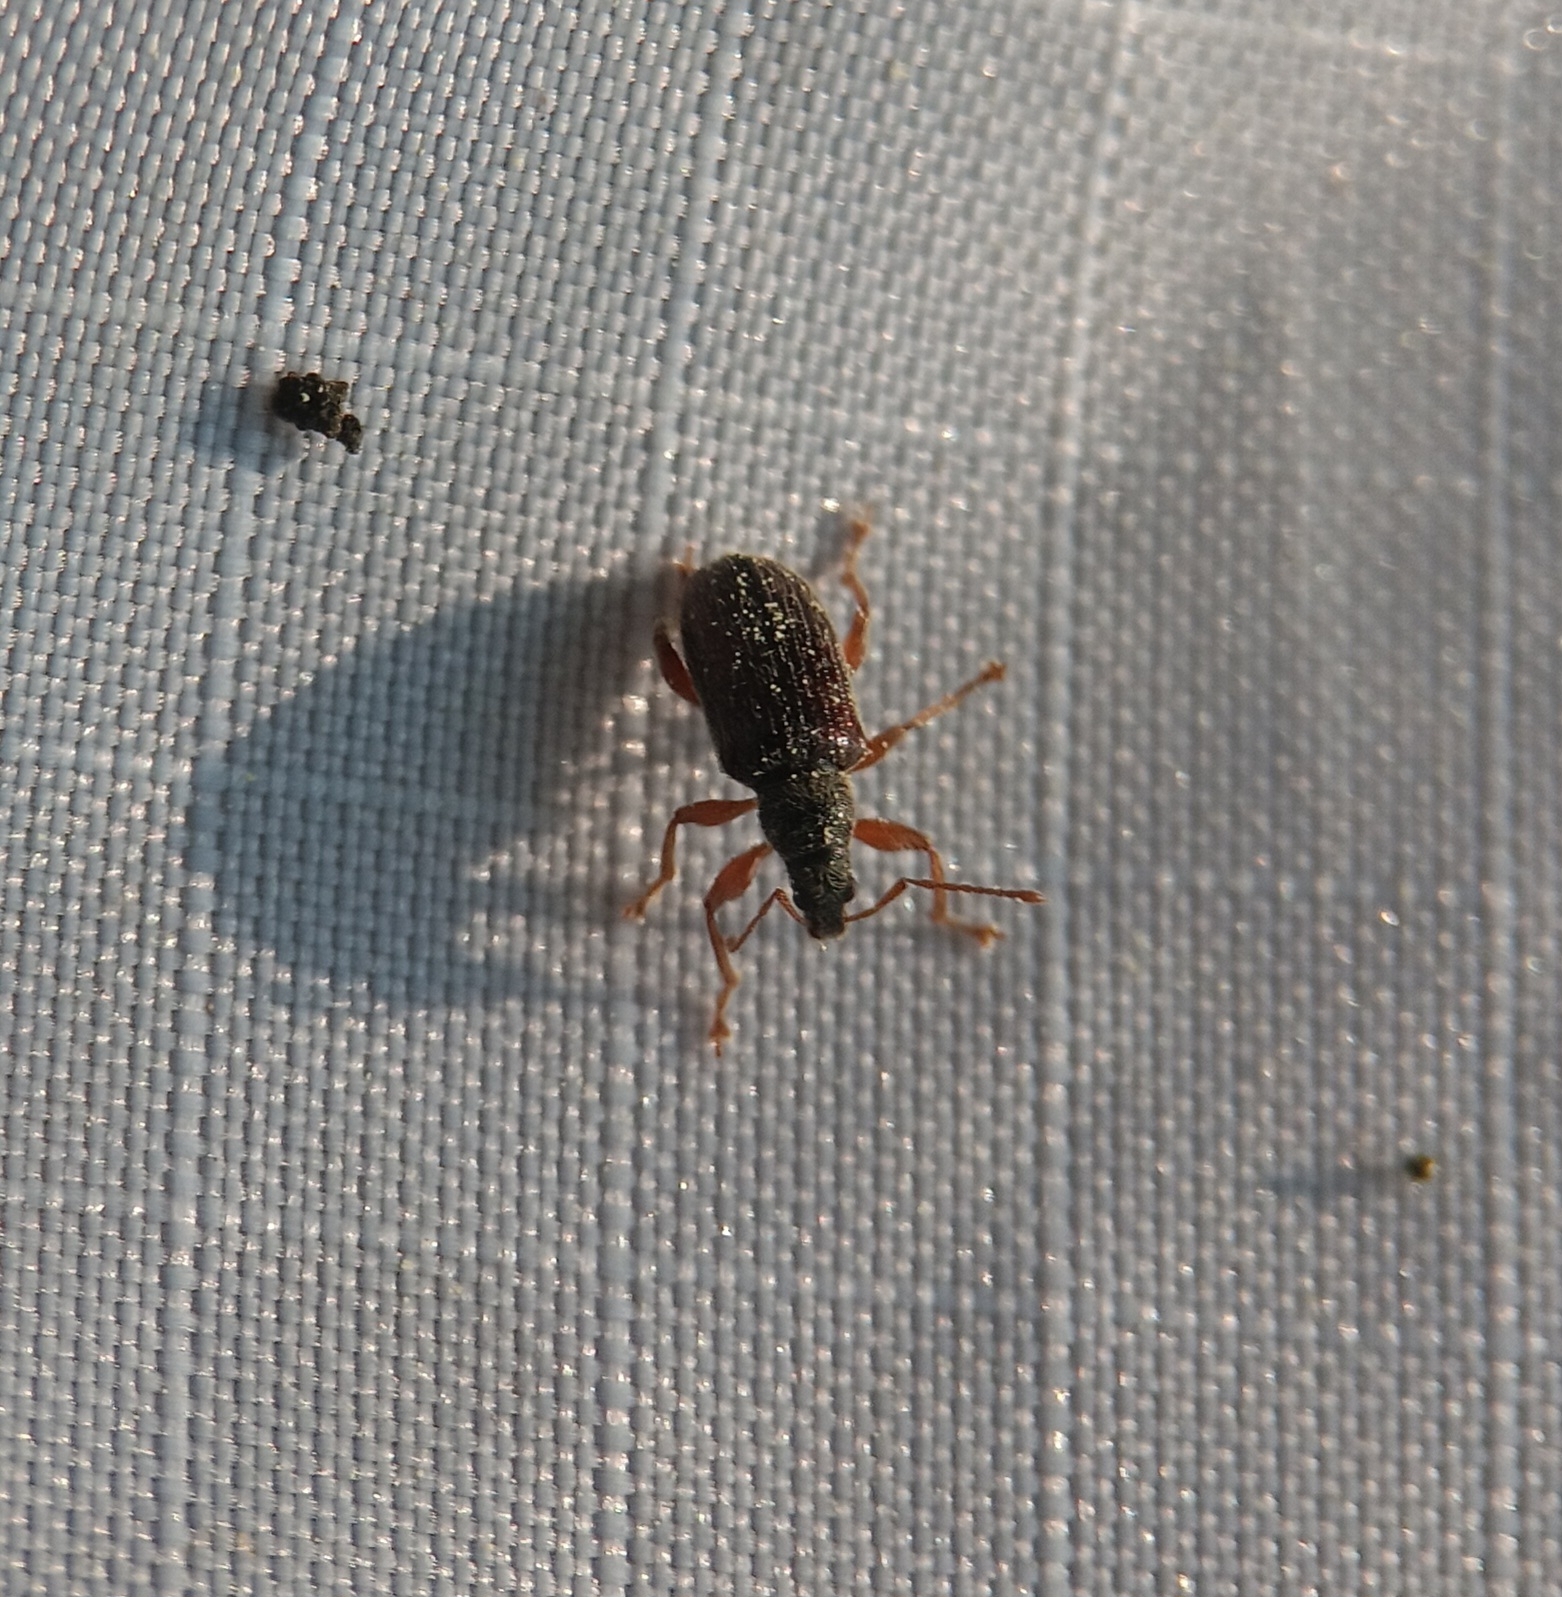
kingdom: Animalia
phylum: Arthropoda
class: Insecta
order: Coleoptera
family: Curculionidae
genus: Phyllobius
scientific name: Phyllobius oblongus
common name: Brown leaf weevil
